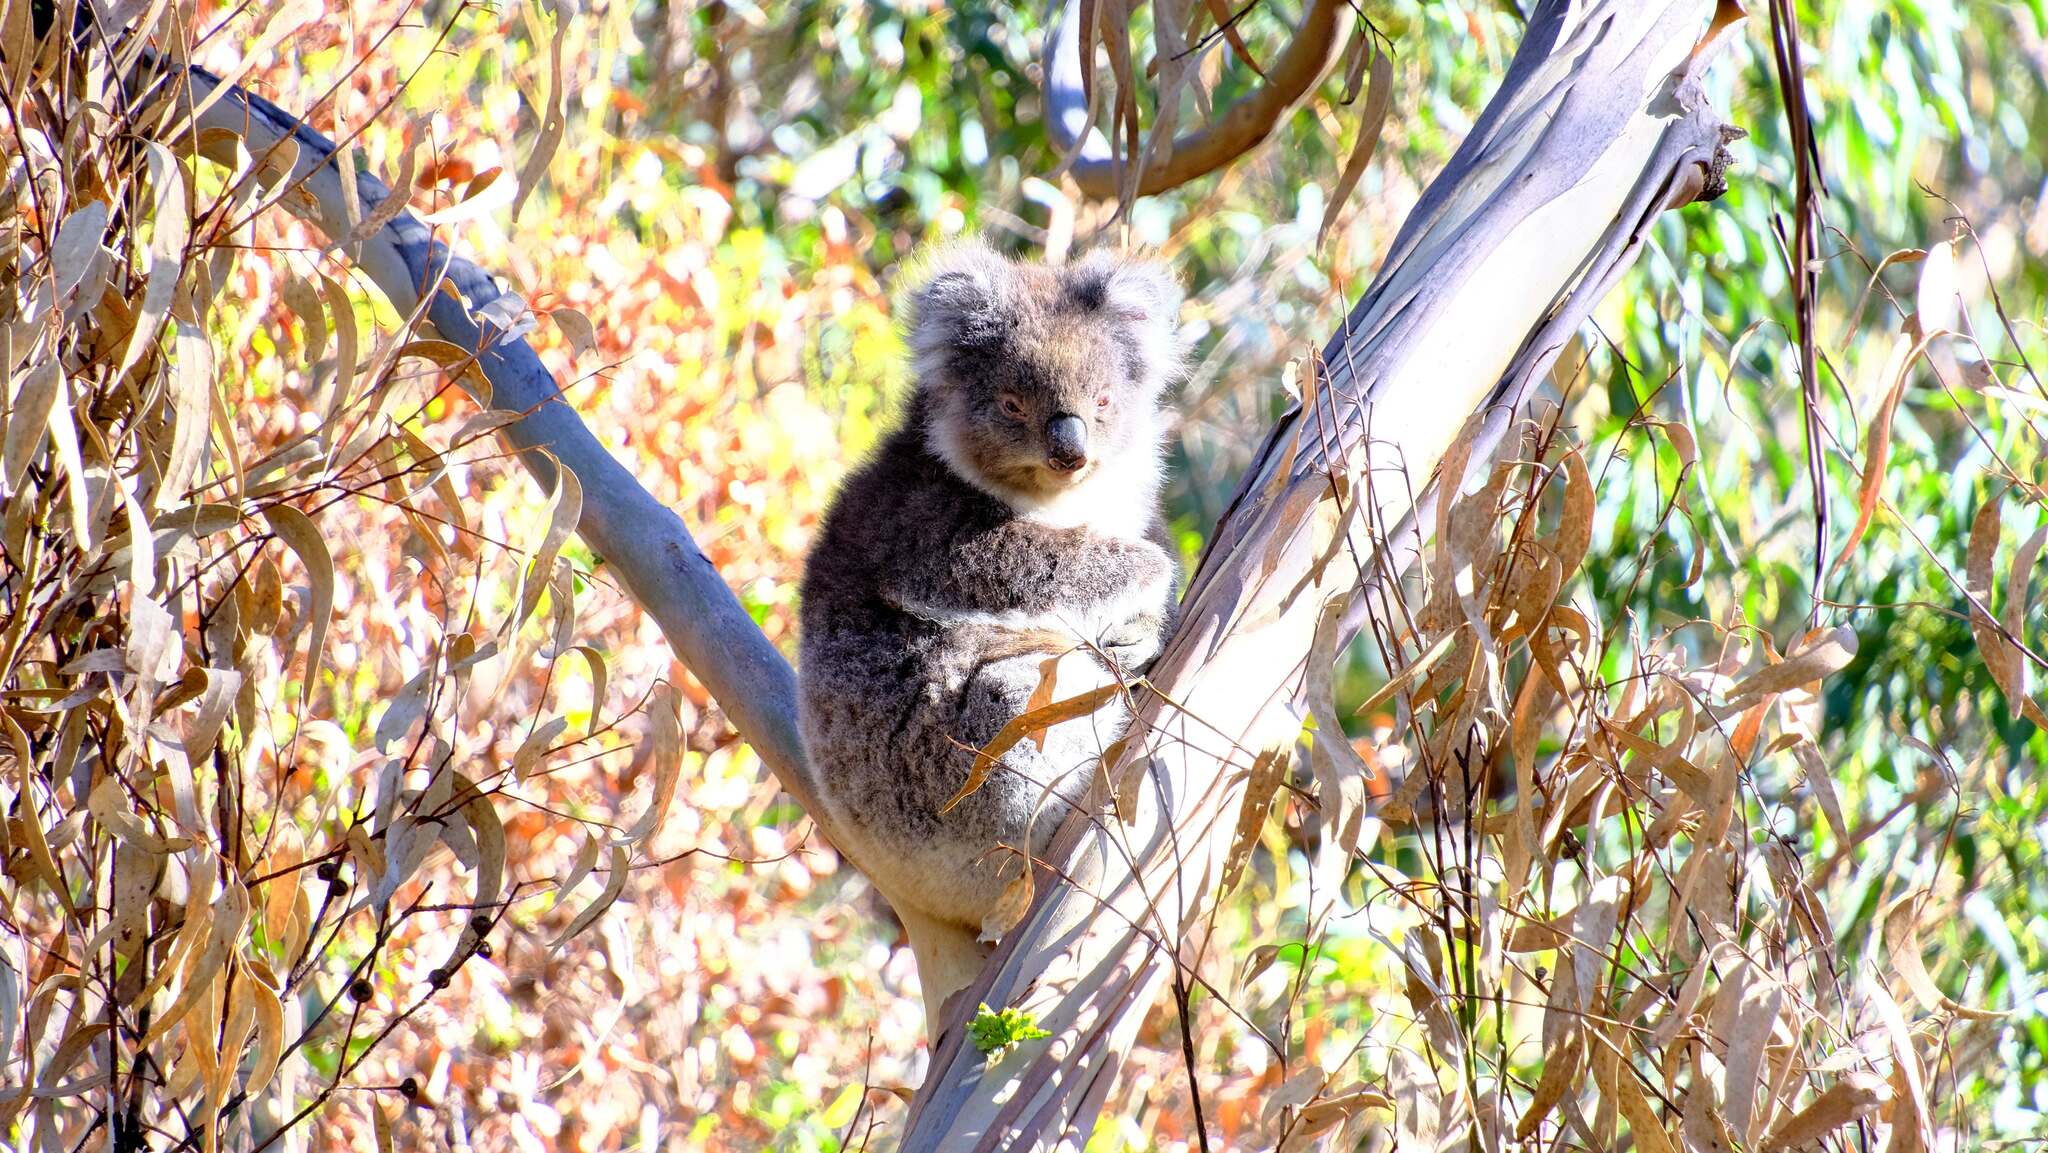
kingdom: Animalia
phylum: Chordata
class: Mammalia
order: Diprotodontia
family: Phascolarctidae
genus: Phascolarctos
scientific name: Phascolarctos cinereus
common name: Koala
